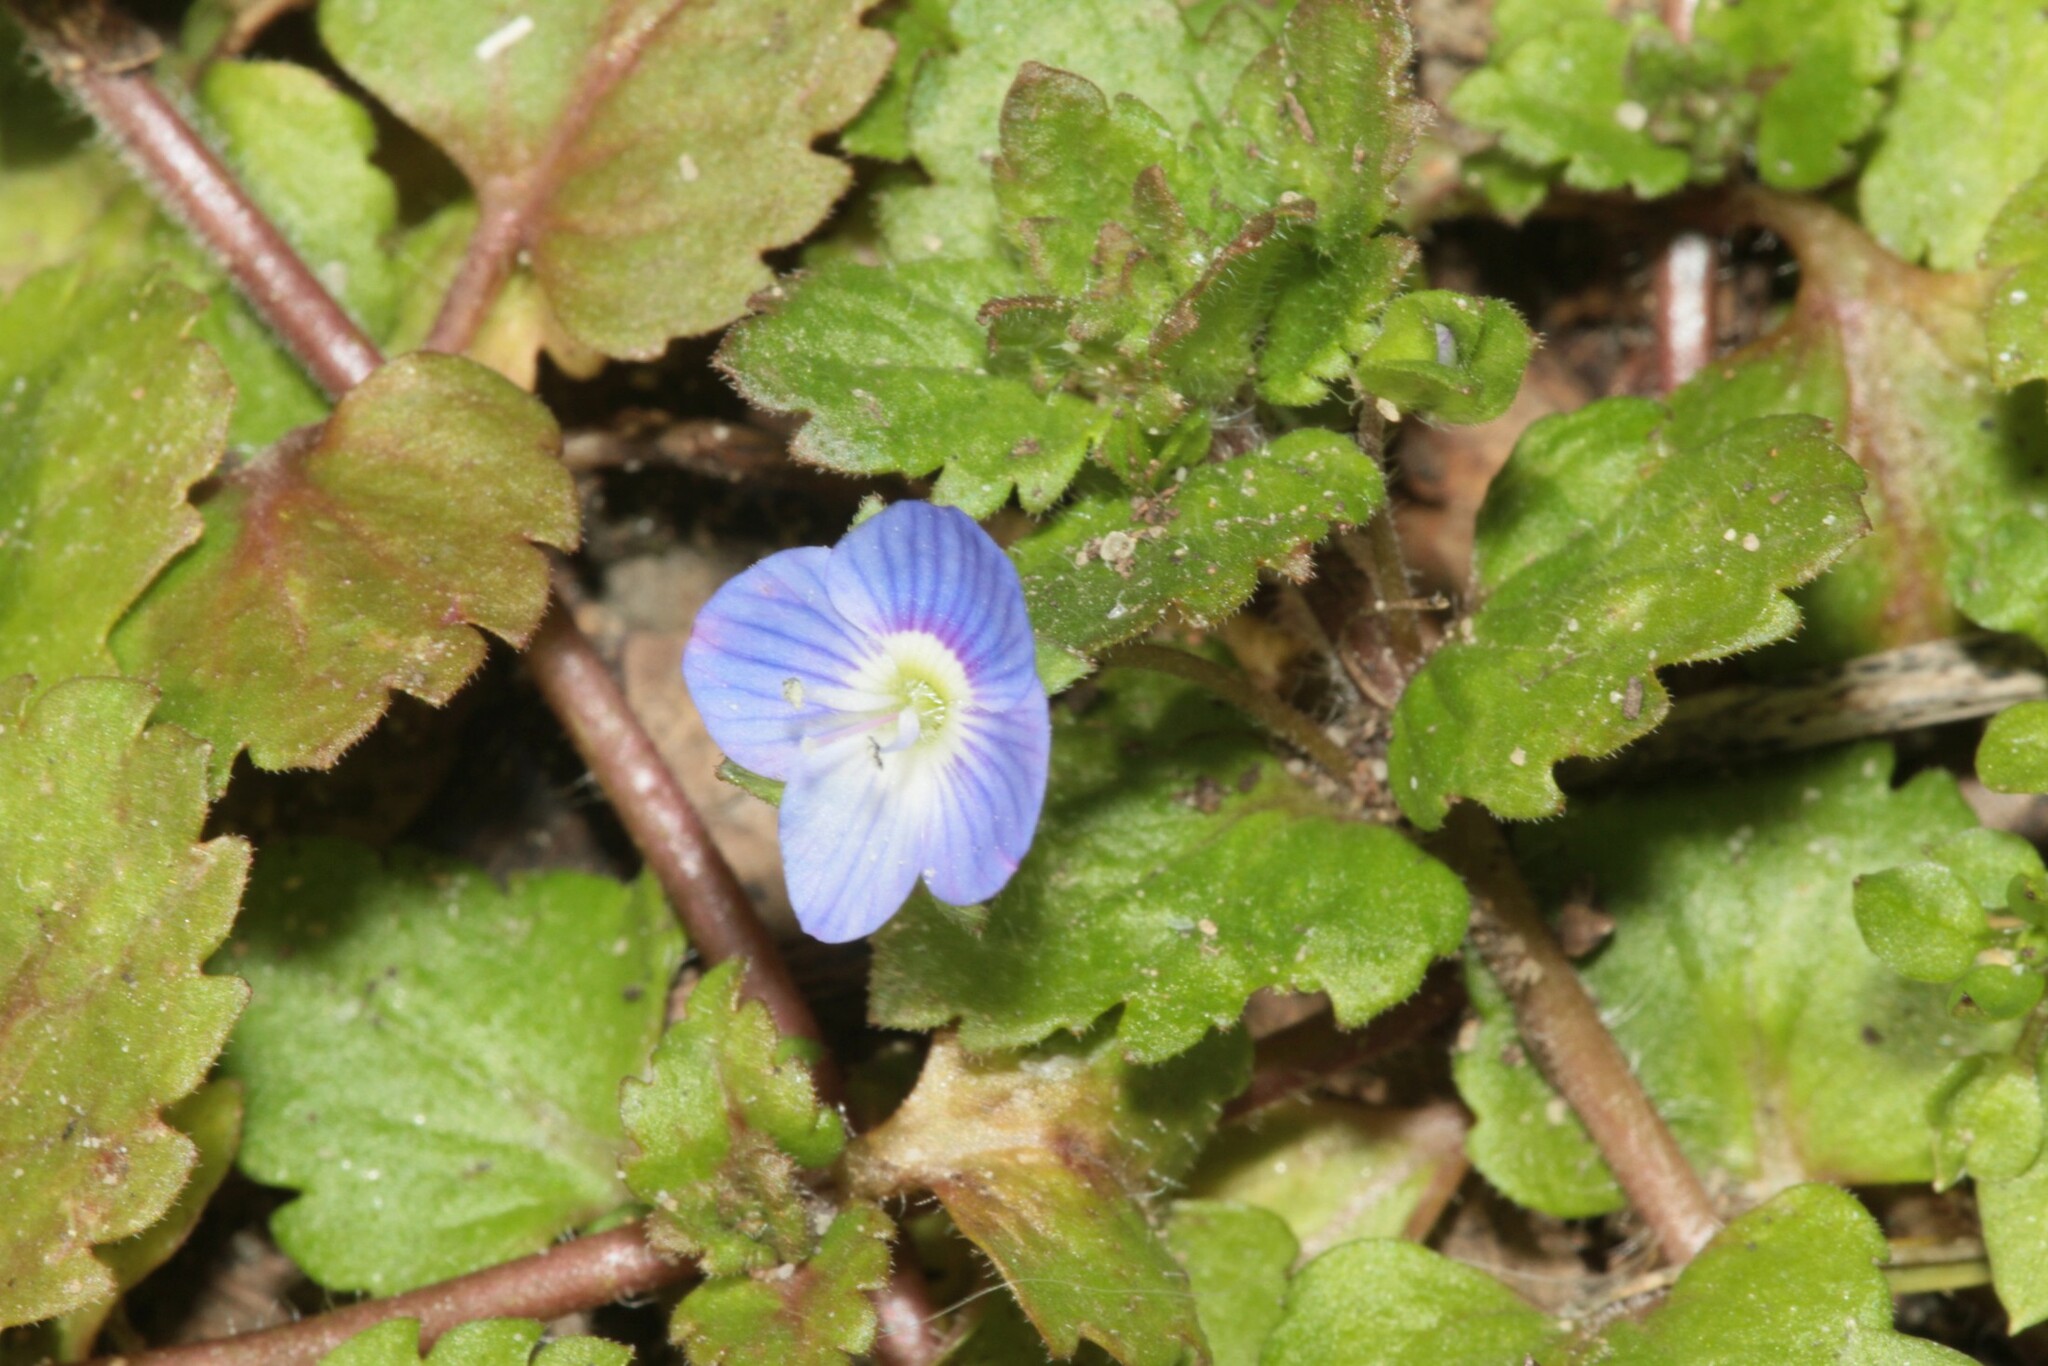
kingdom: Plantae
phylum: Tracheophyta
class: Magnoliopsida
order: Lamiales
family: Plantaginaceae
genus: Veronica
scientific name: Veronica persica
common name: Common field-speedwell
